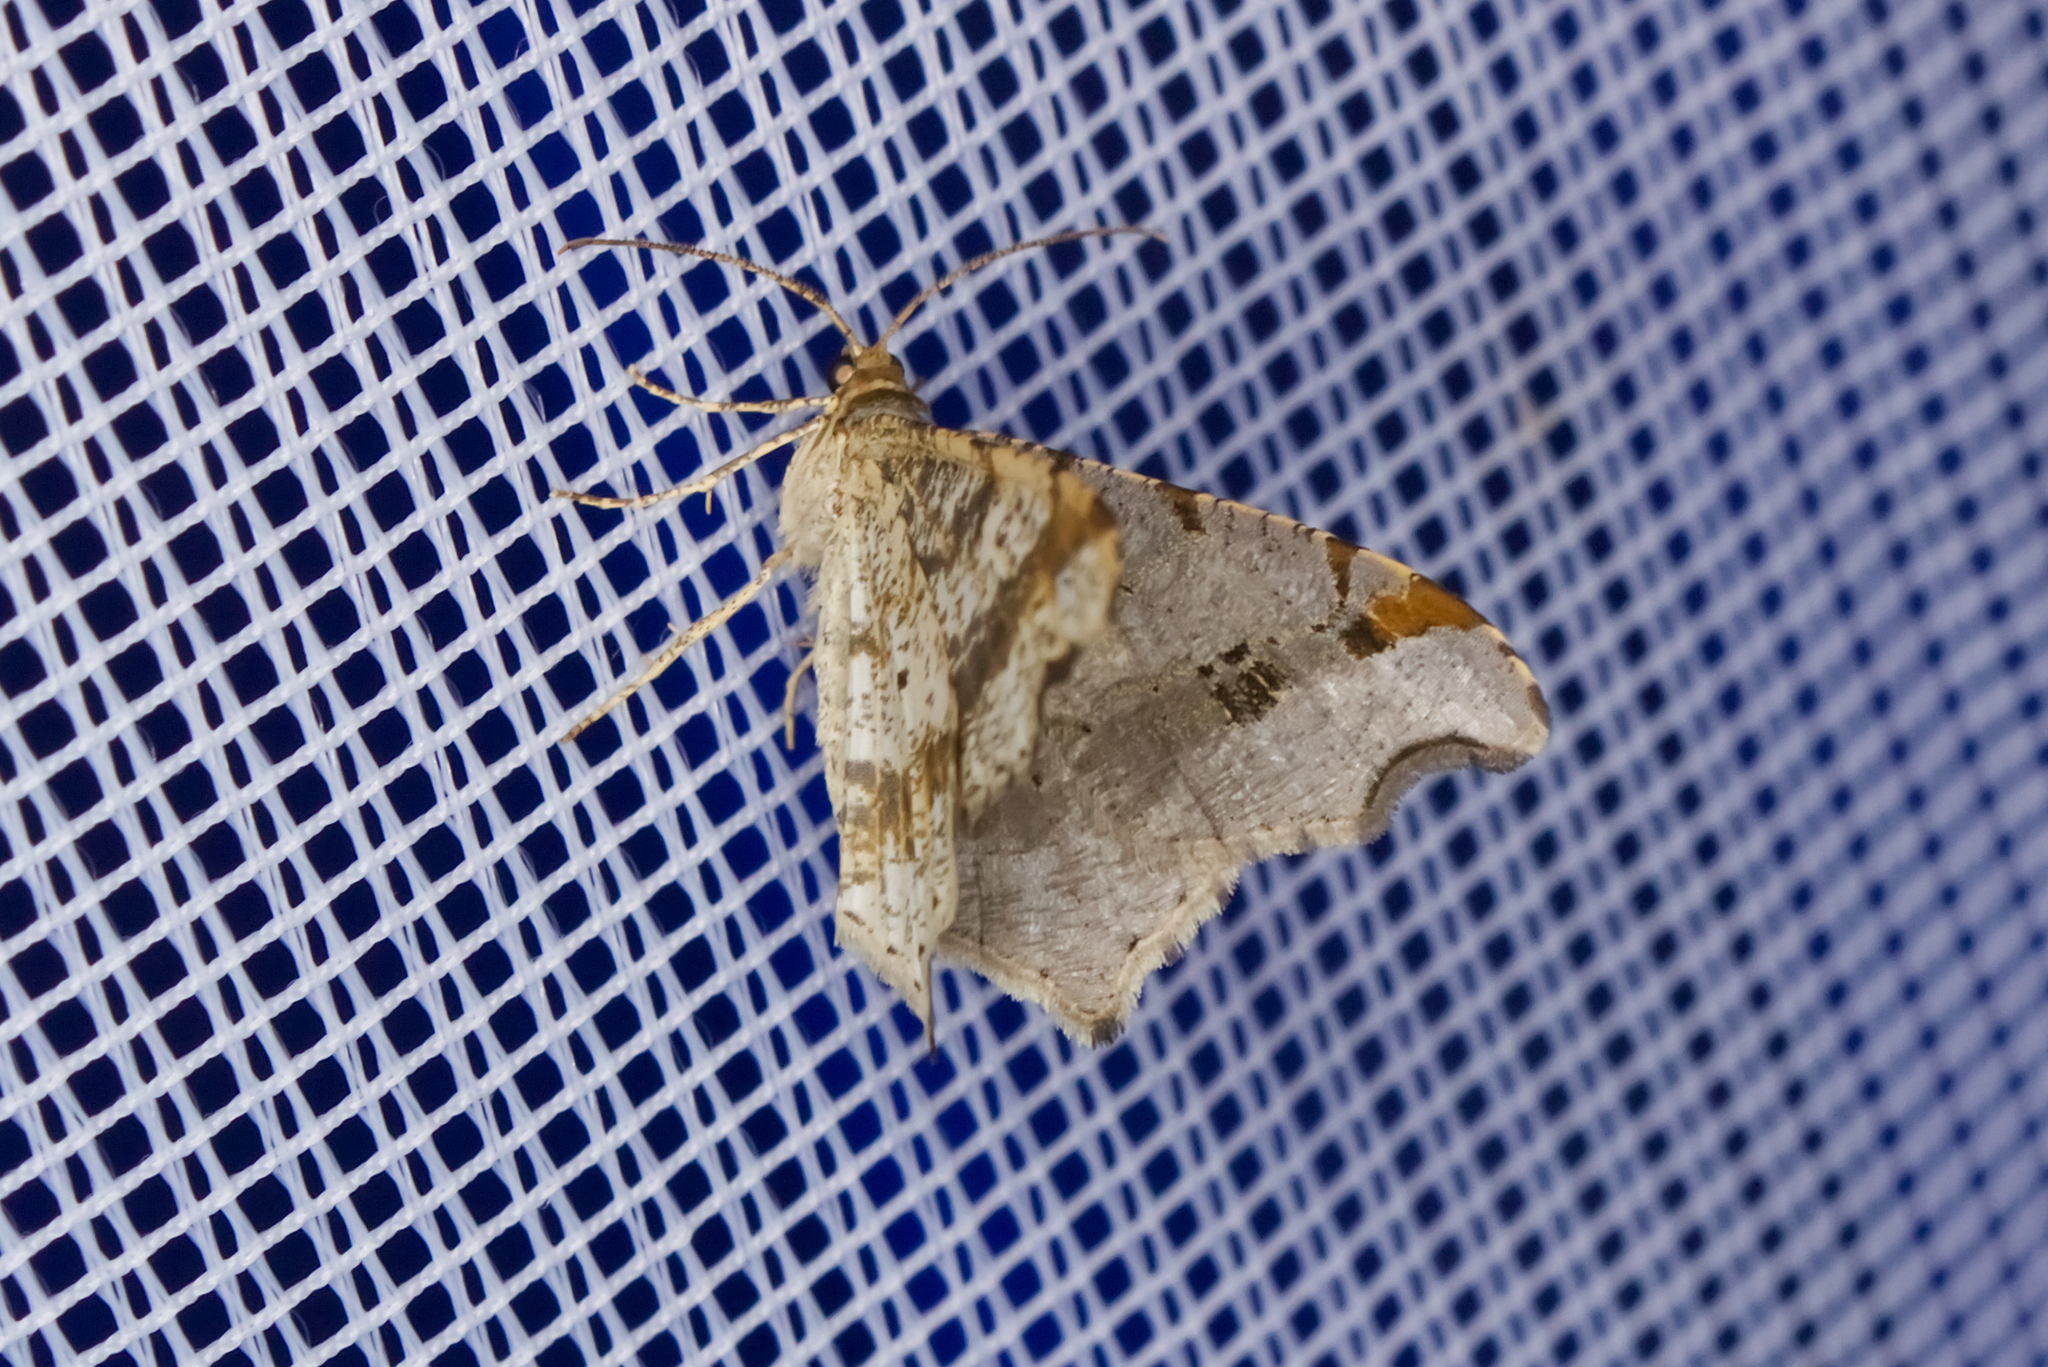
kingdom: Animalia
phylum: Arthropoda
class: Insecta
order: Lepidoptera
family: Geometridae
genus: Macaria
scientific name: Macaria alternata
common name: Sharp-angled peacock
